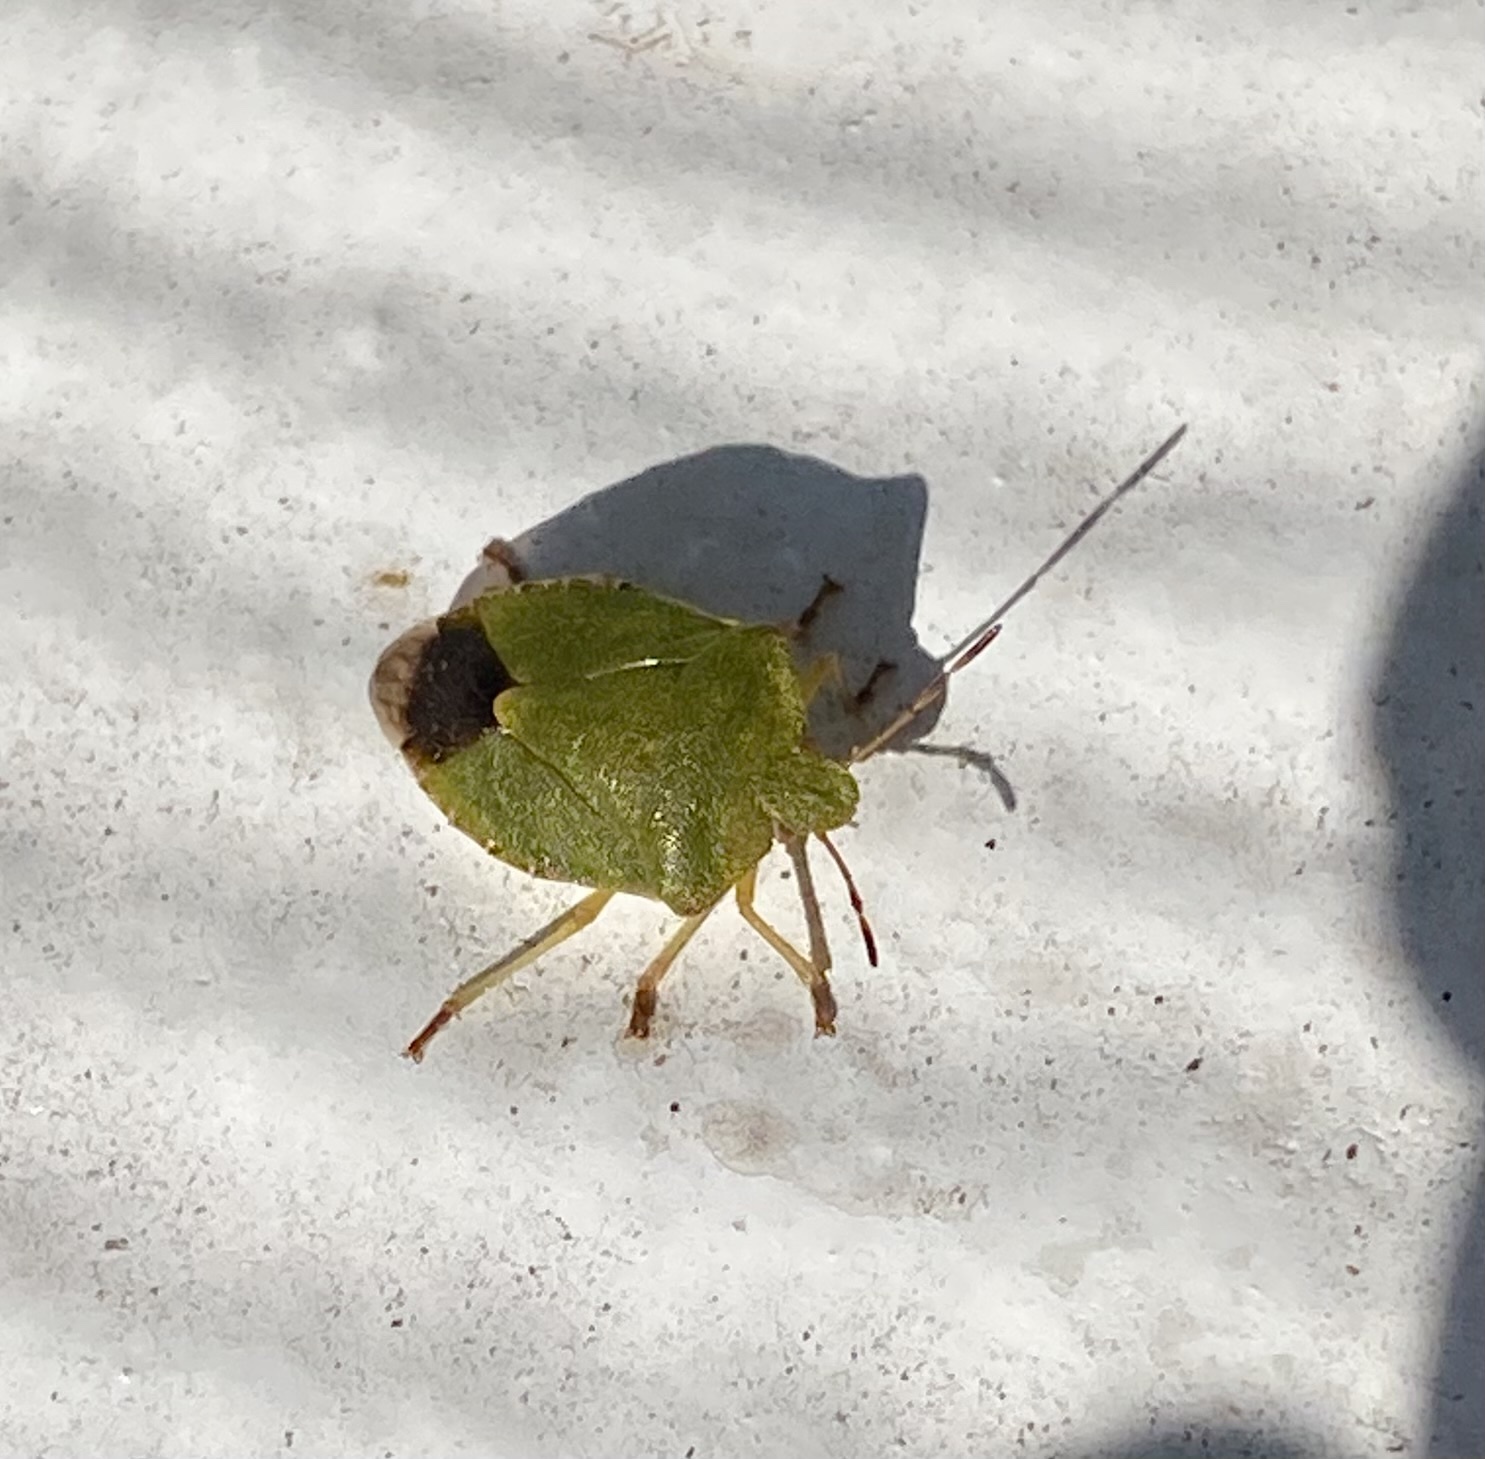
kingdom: Animalia
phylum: Arthropoda
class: Insecta
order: Hemiptera
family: Pentatomidae
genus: Palomena
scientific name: Palomena prasina
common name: Green shieldbug
